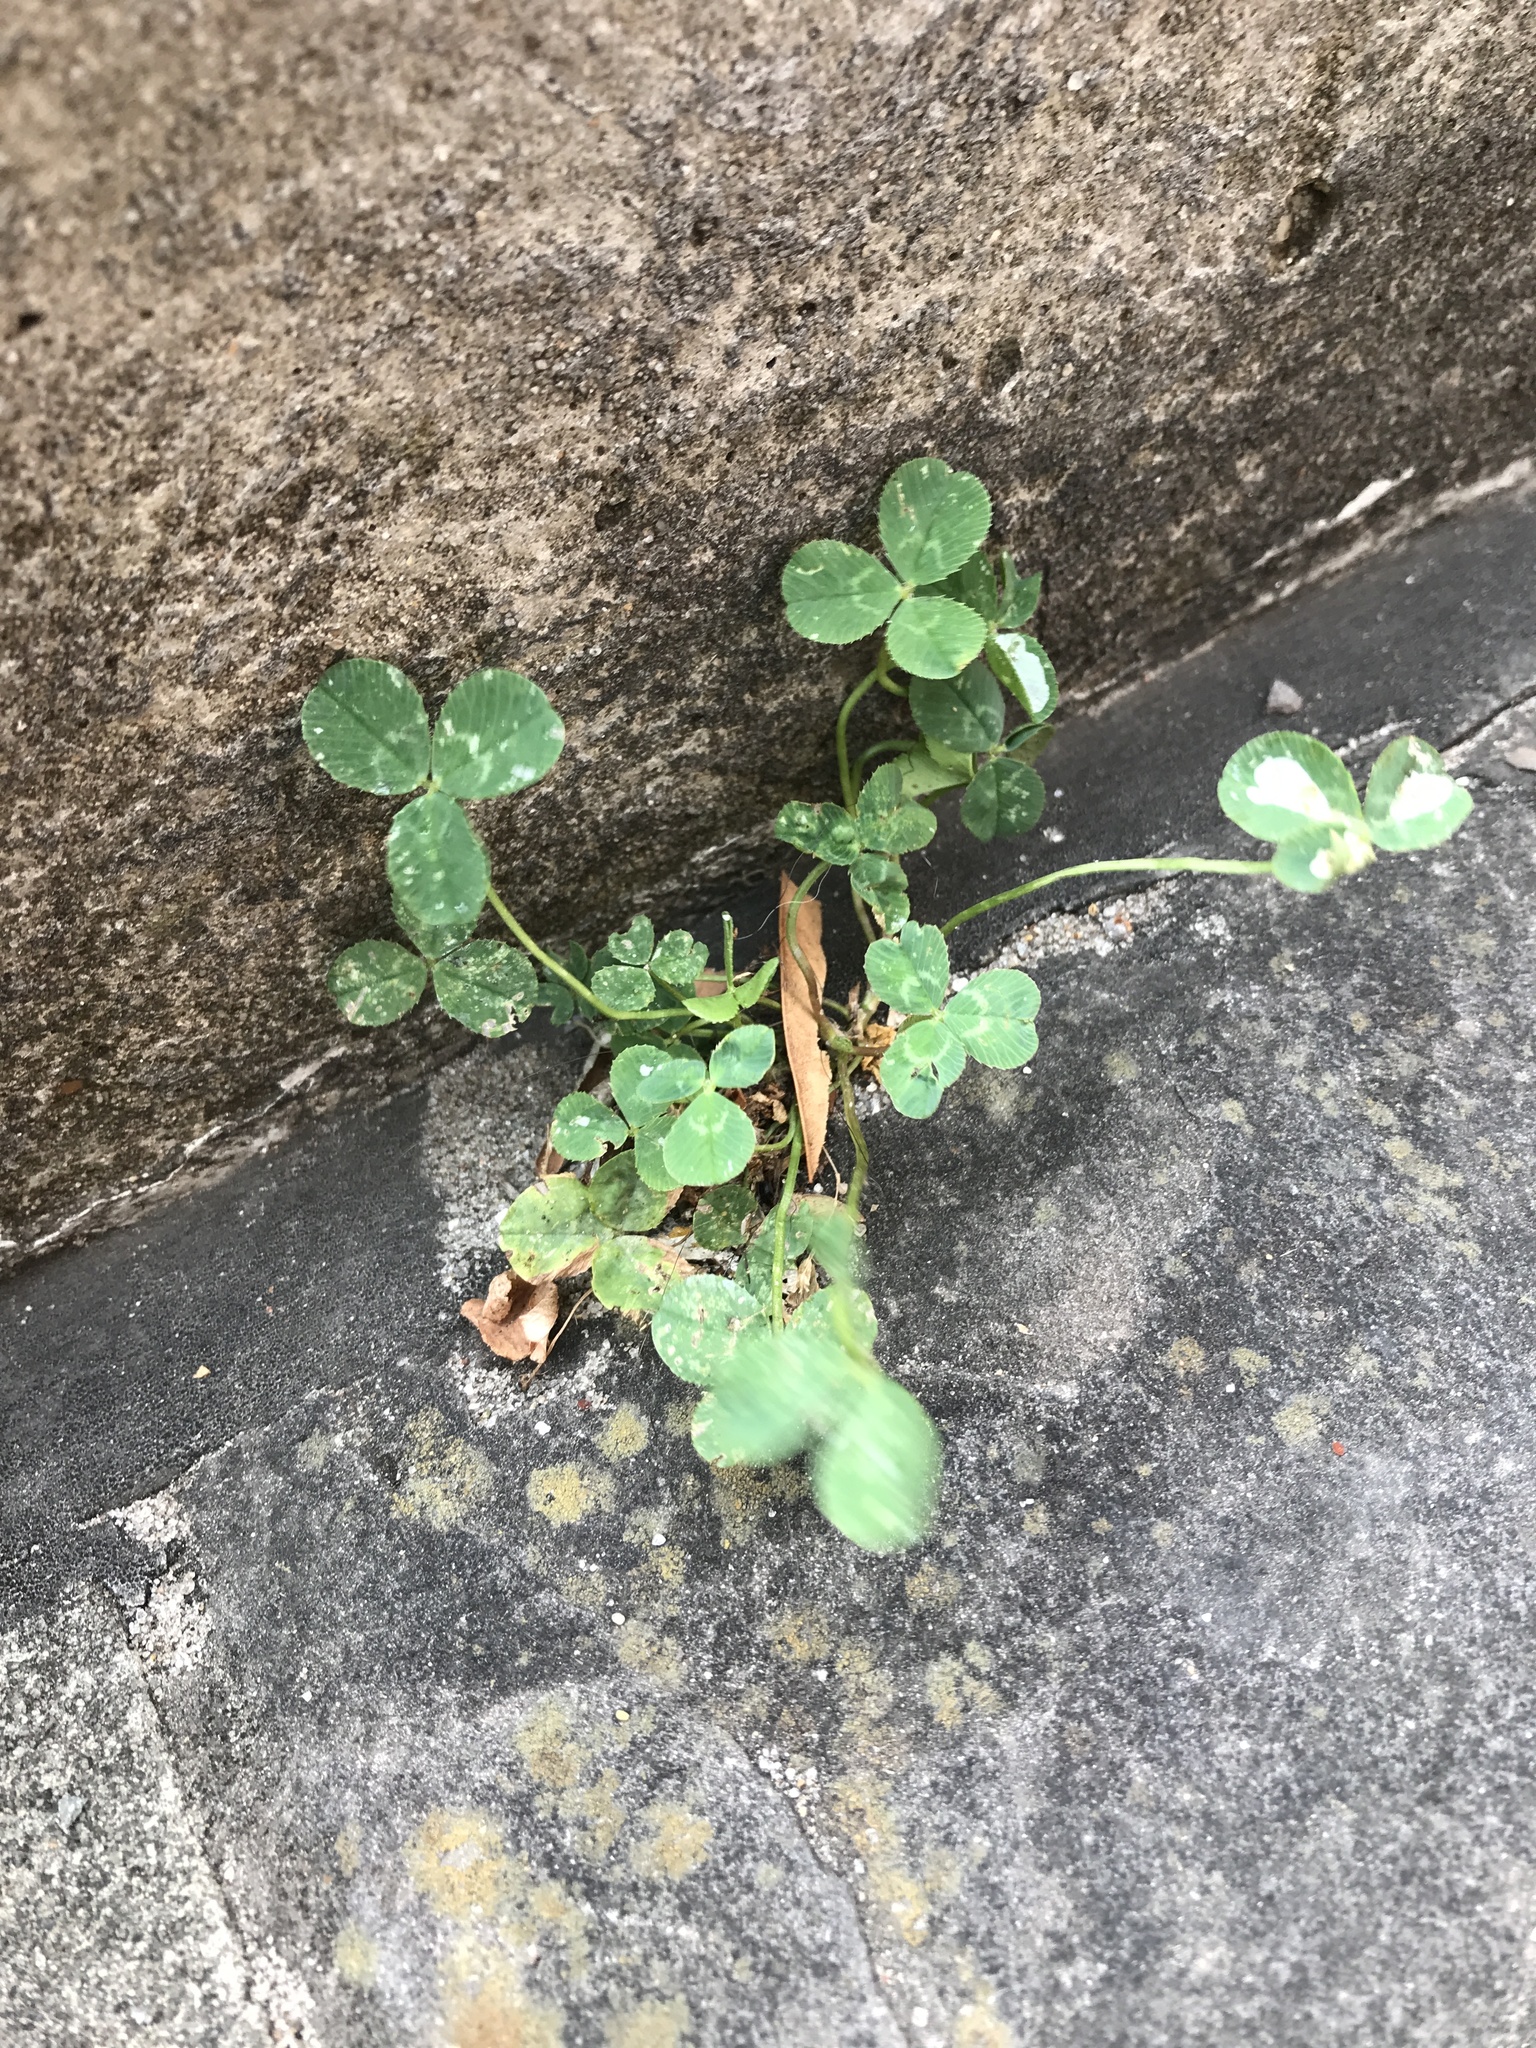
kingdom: Plantae
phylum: Tracheophyta
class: Magnoliopsida
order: Fabales
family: Fabaceae
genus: Trifolium
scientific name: Trifolium repens
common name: White clover
